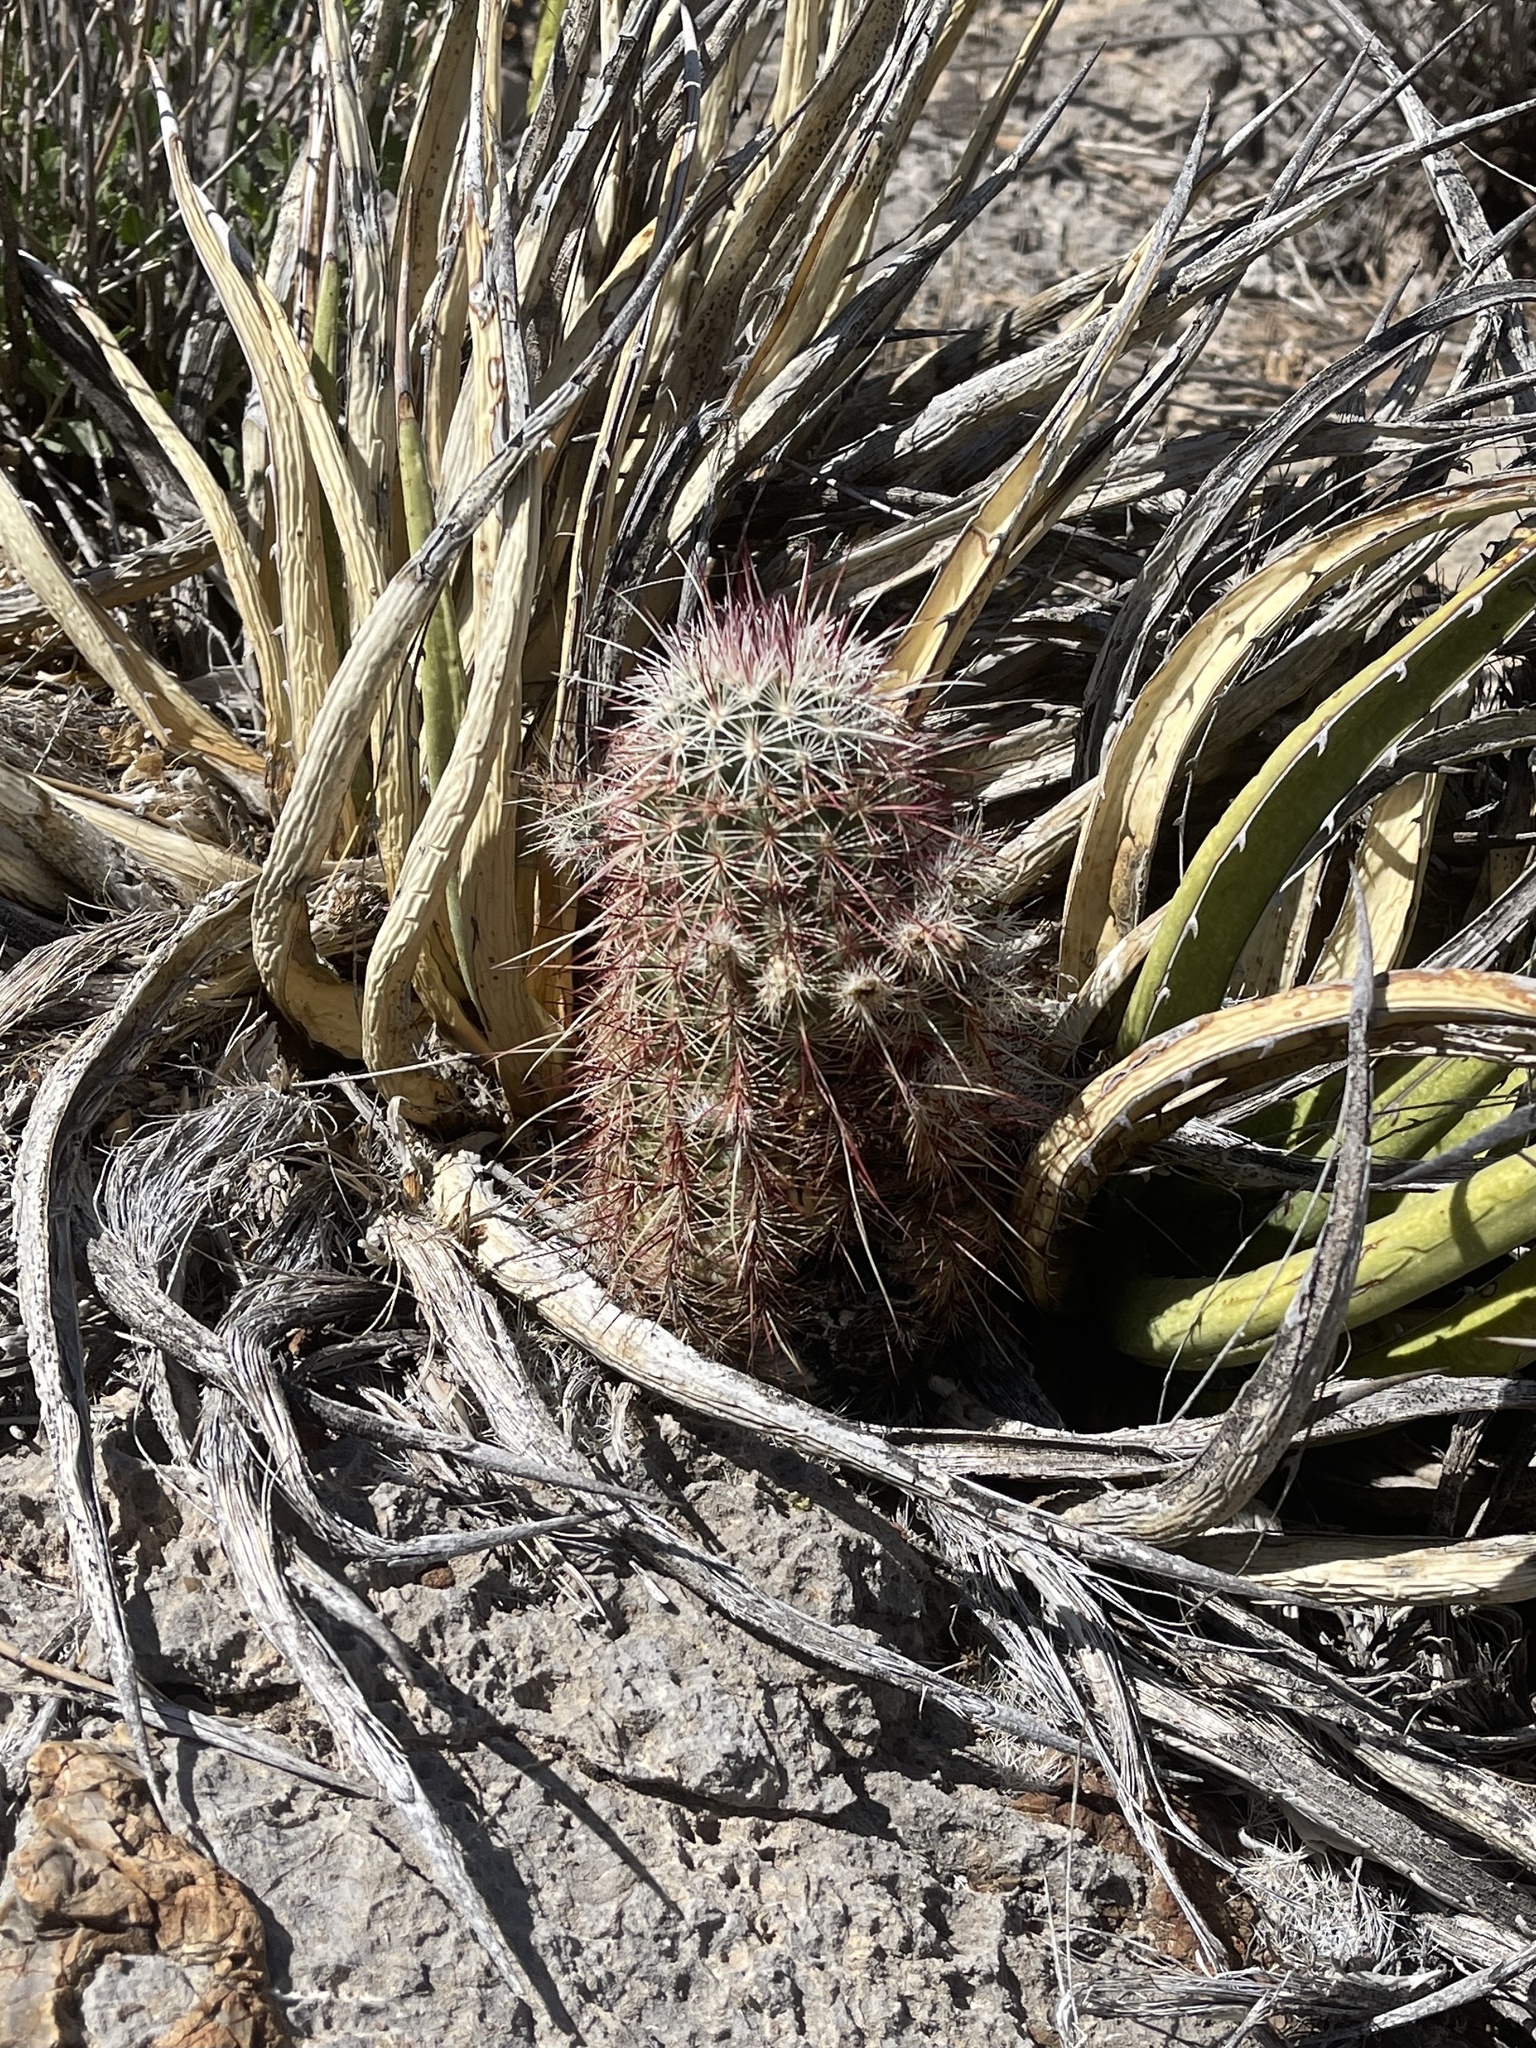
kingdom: Plantae
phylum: Tracheophyta
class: Magnoliopsida
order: Caryophyllales
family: Cactaceae
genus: Echinocereus
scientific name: Echinocereus viridiflorus
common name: Nylon hedgehog cactus
